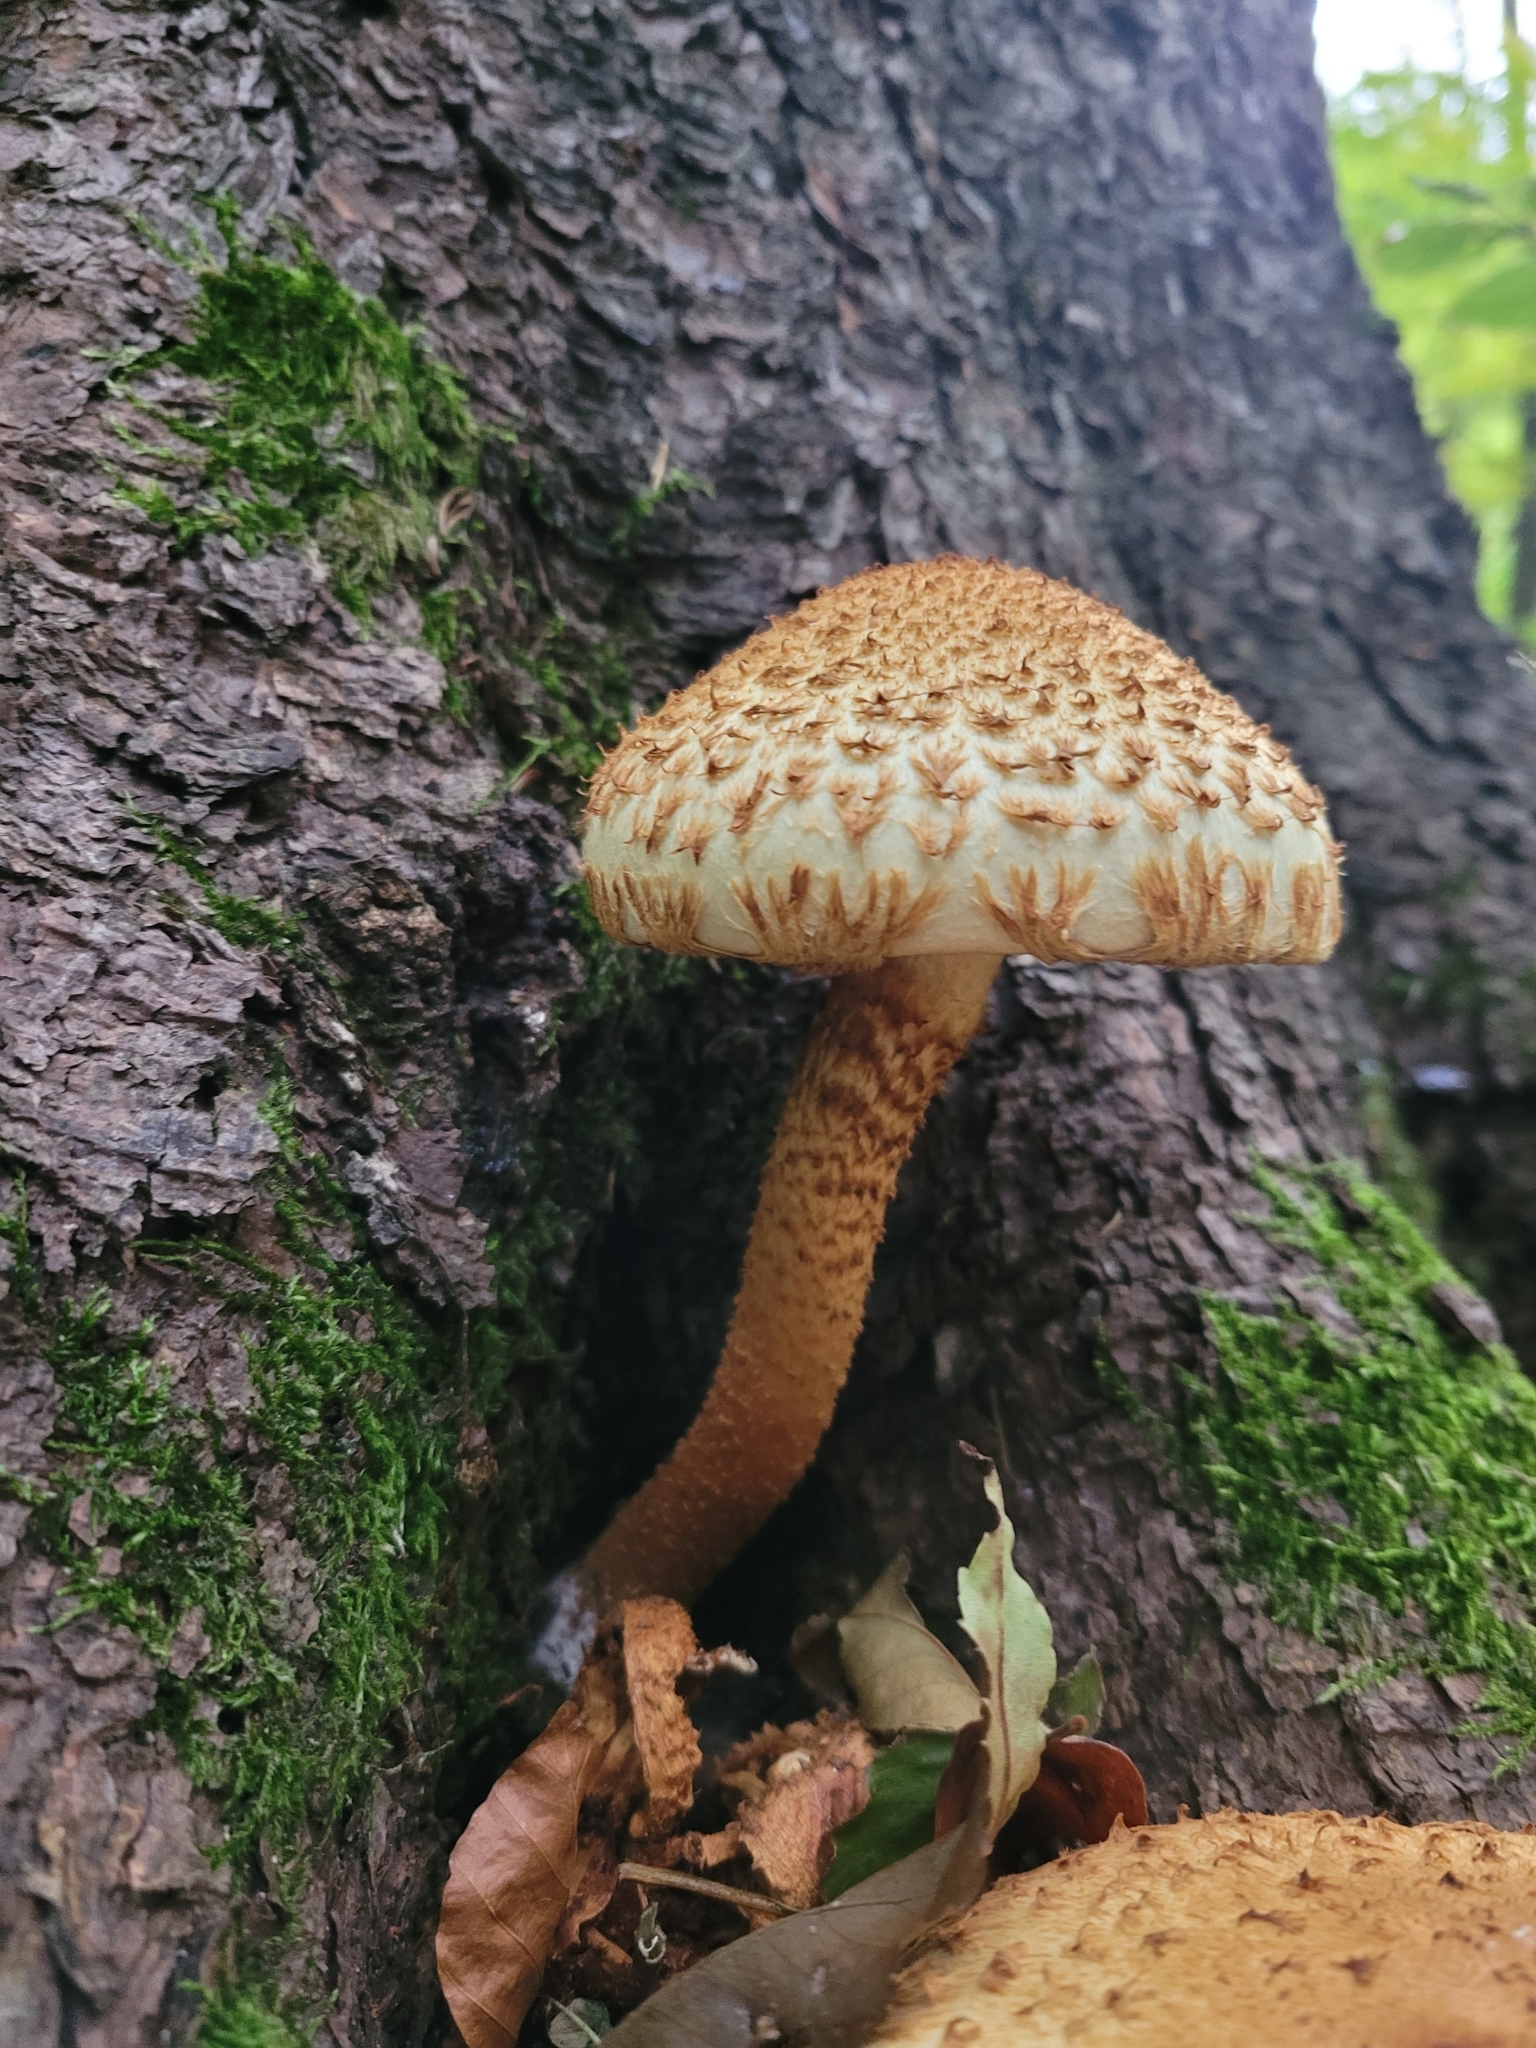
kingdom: Fungi
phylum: Basidiomycota
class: Agaricomycetes
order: Agaricales
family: Strophariaceae
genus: Pholiota
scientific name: Pholiota squarrosa
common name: Shaggy pholiota
